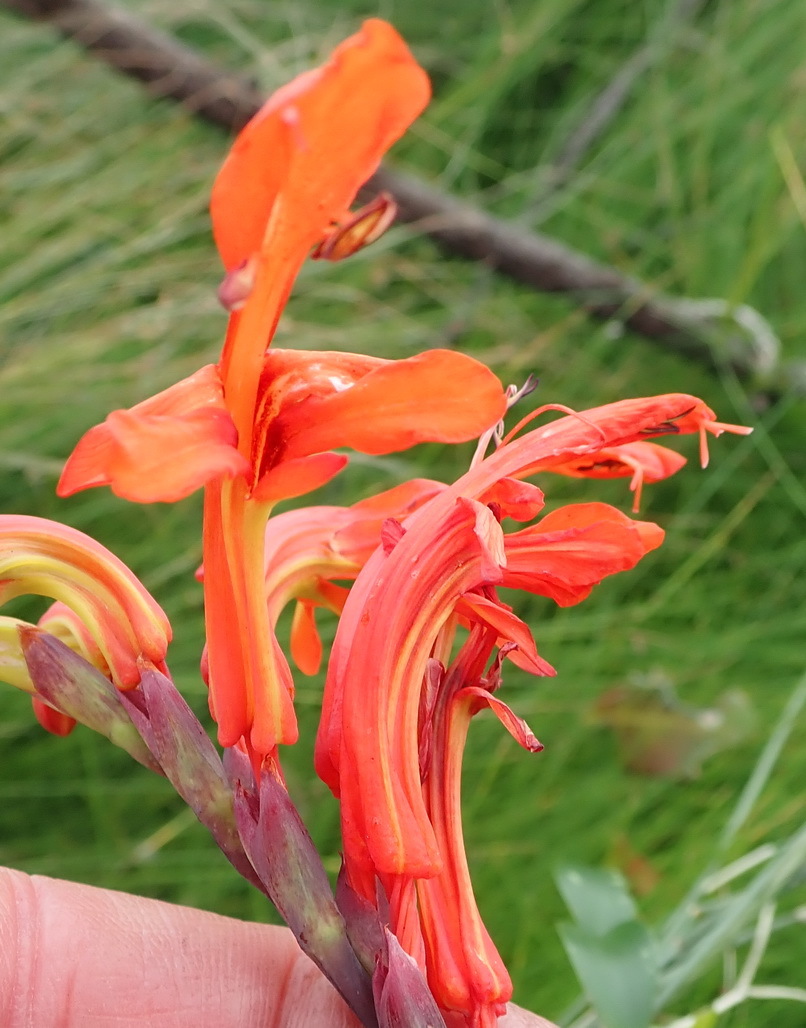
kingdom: Plantae
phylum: Tracheophyta
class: Liliopsida
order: Asparagales
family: Iridaceae
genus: Chasmanthe
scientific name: Chasmanthe aethiopica
